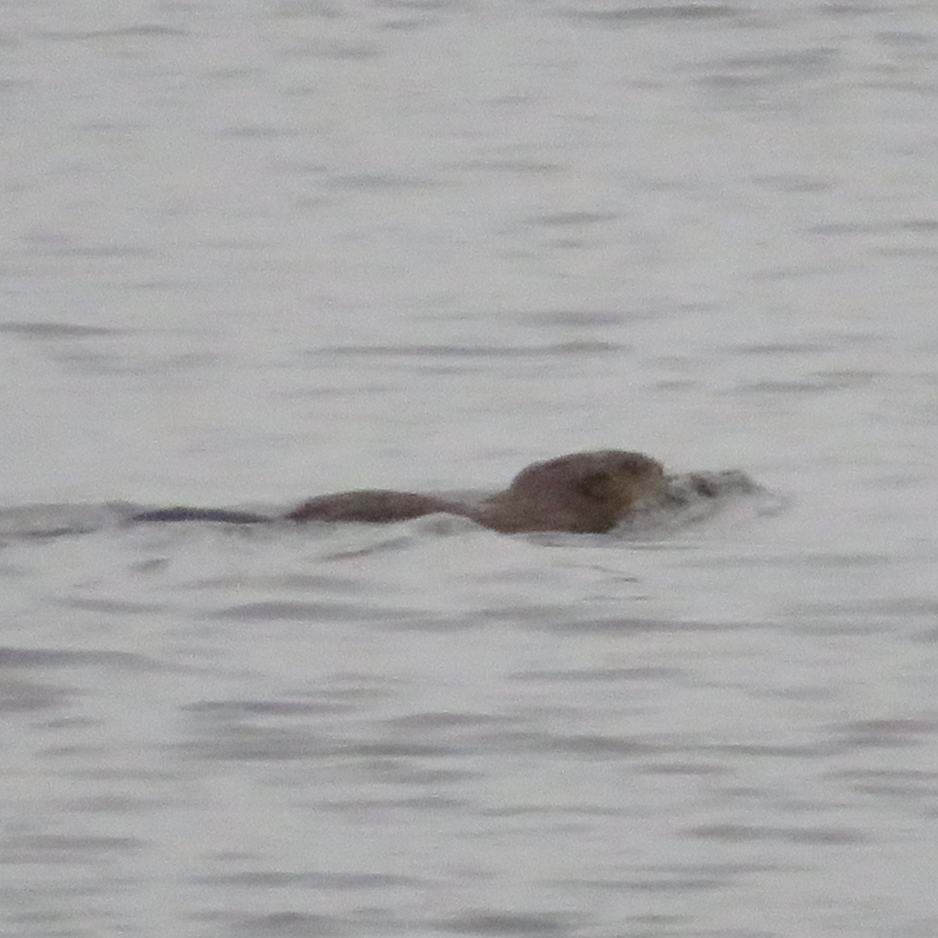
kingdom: Animalia
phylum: Chordata
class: Mammalia
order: Rodentia
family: Cricetidae
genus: Ondatra
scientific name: Ondatra zibethicus
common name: Muskrat
